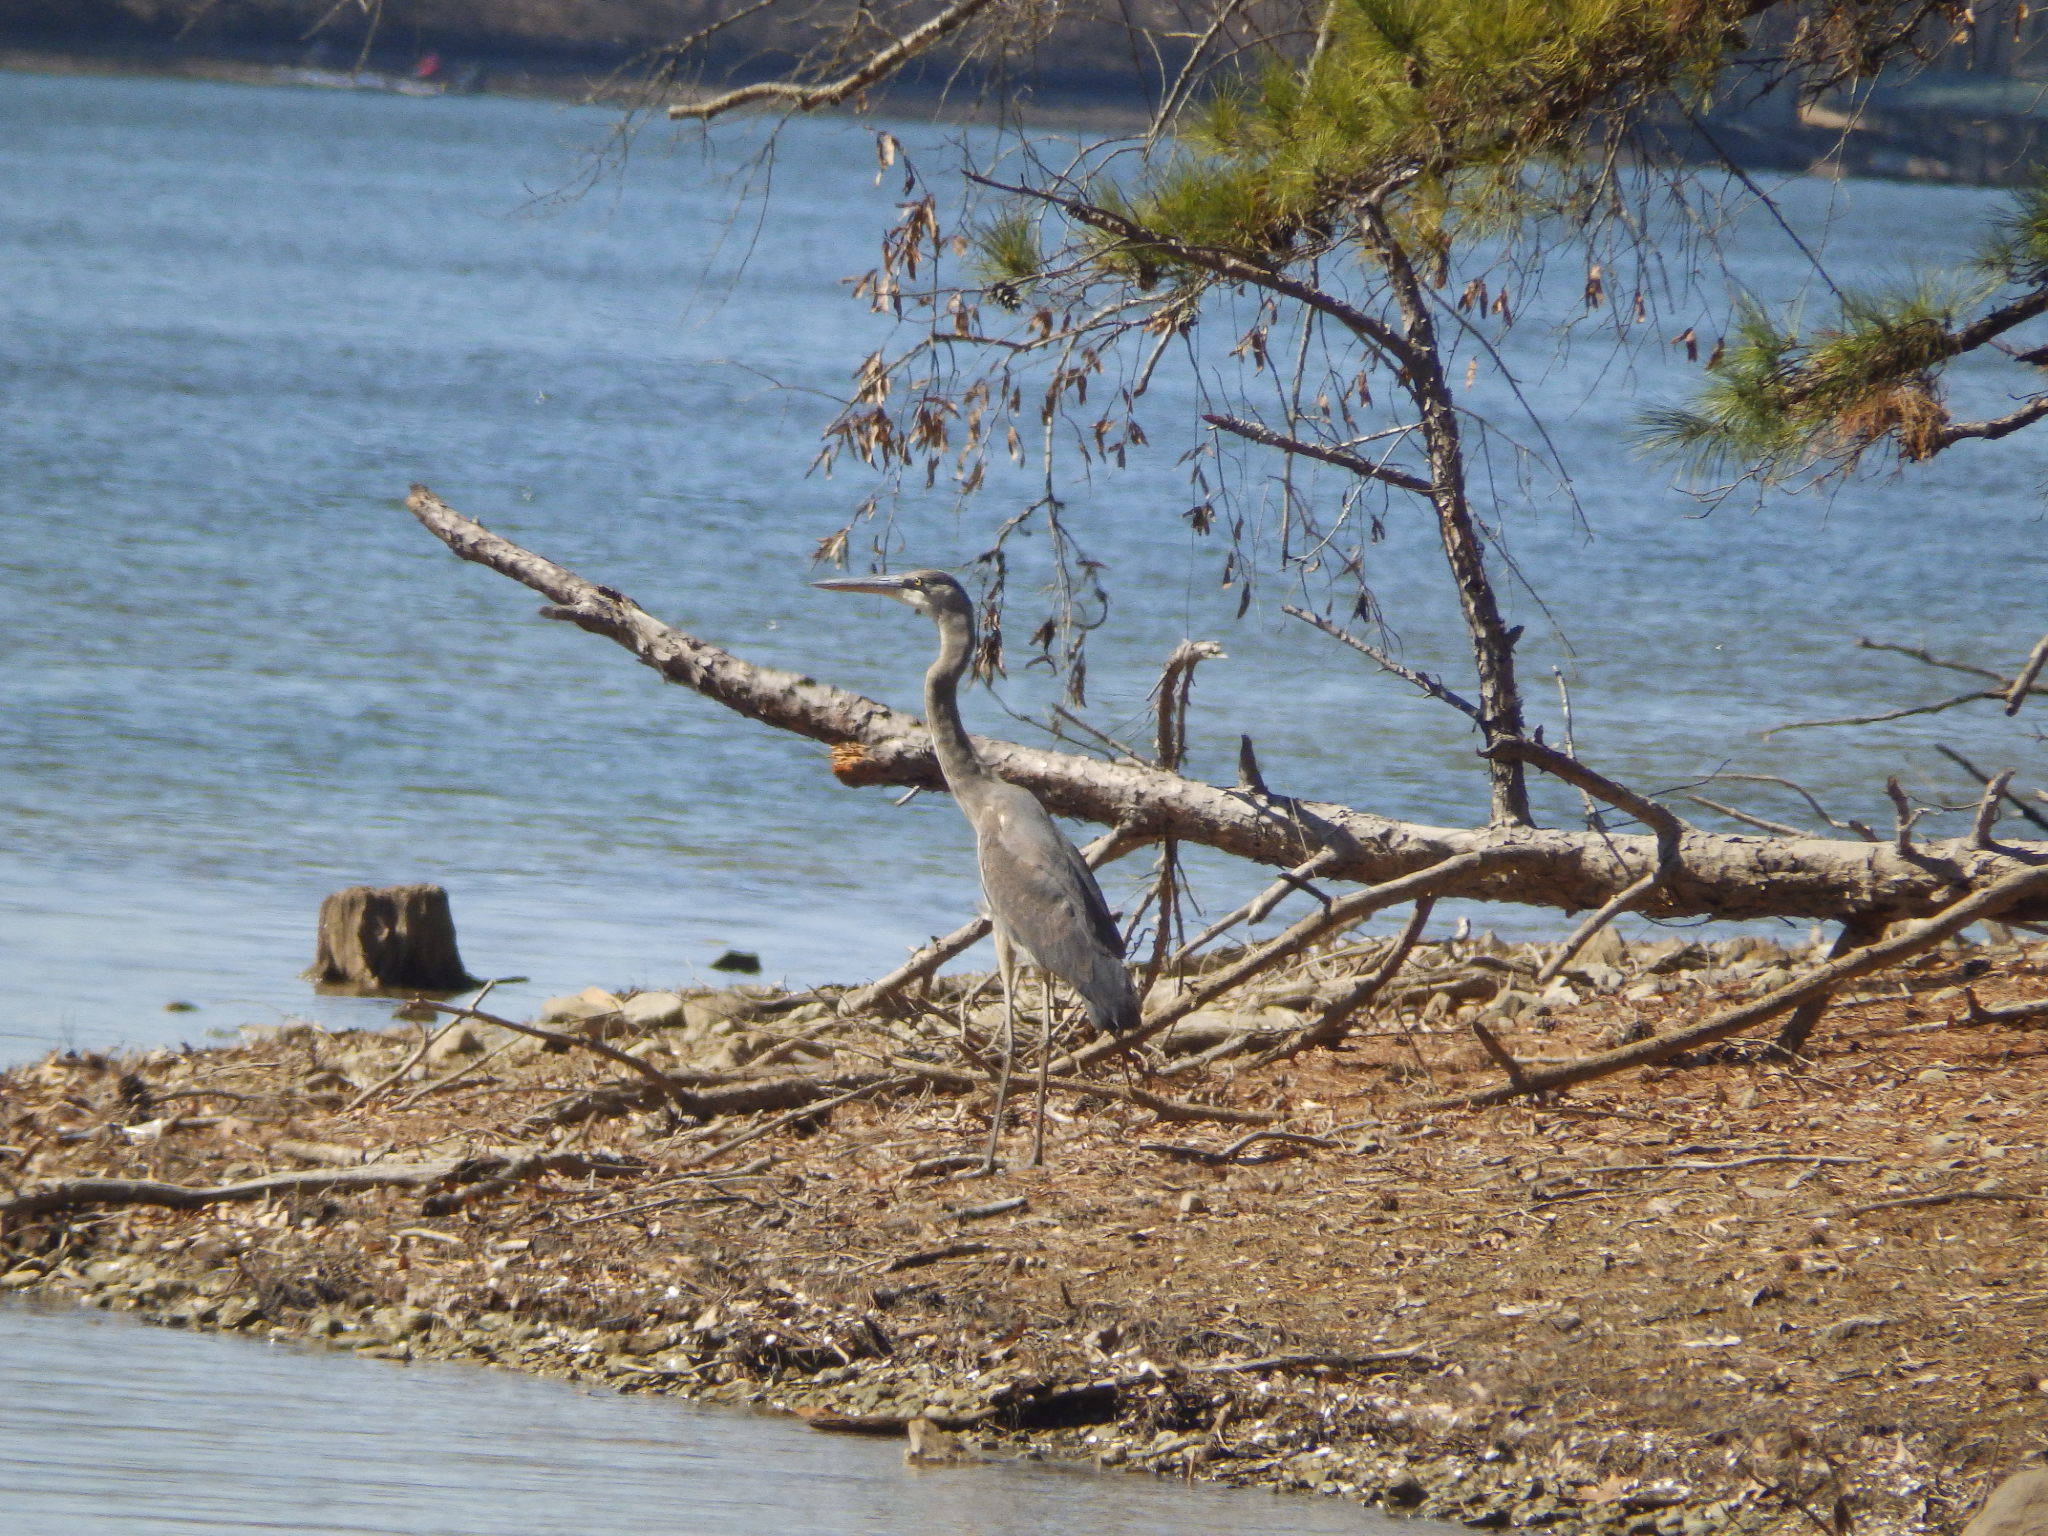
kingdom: Animalia
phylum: Chordata
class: Aves
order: Pelecaniformes
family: Ardeidae
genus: Ardea
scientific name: Ardea herodias
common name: Great blue heron
